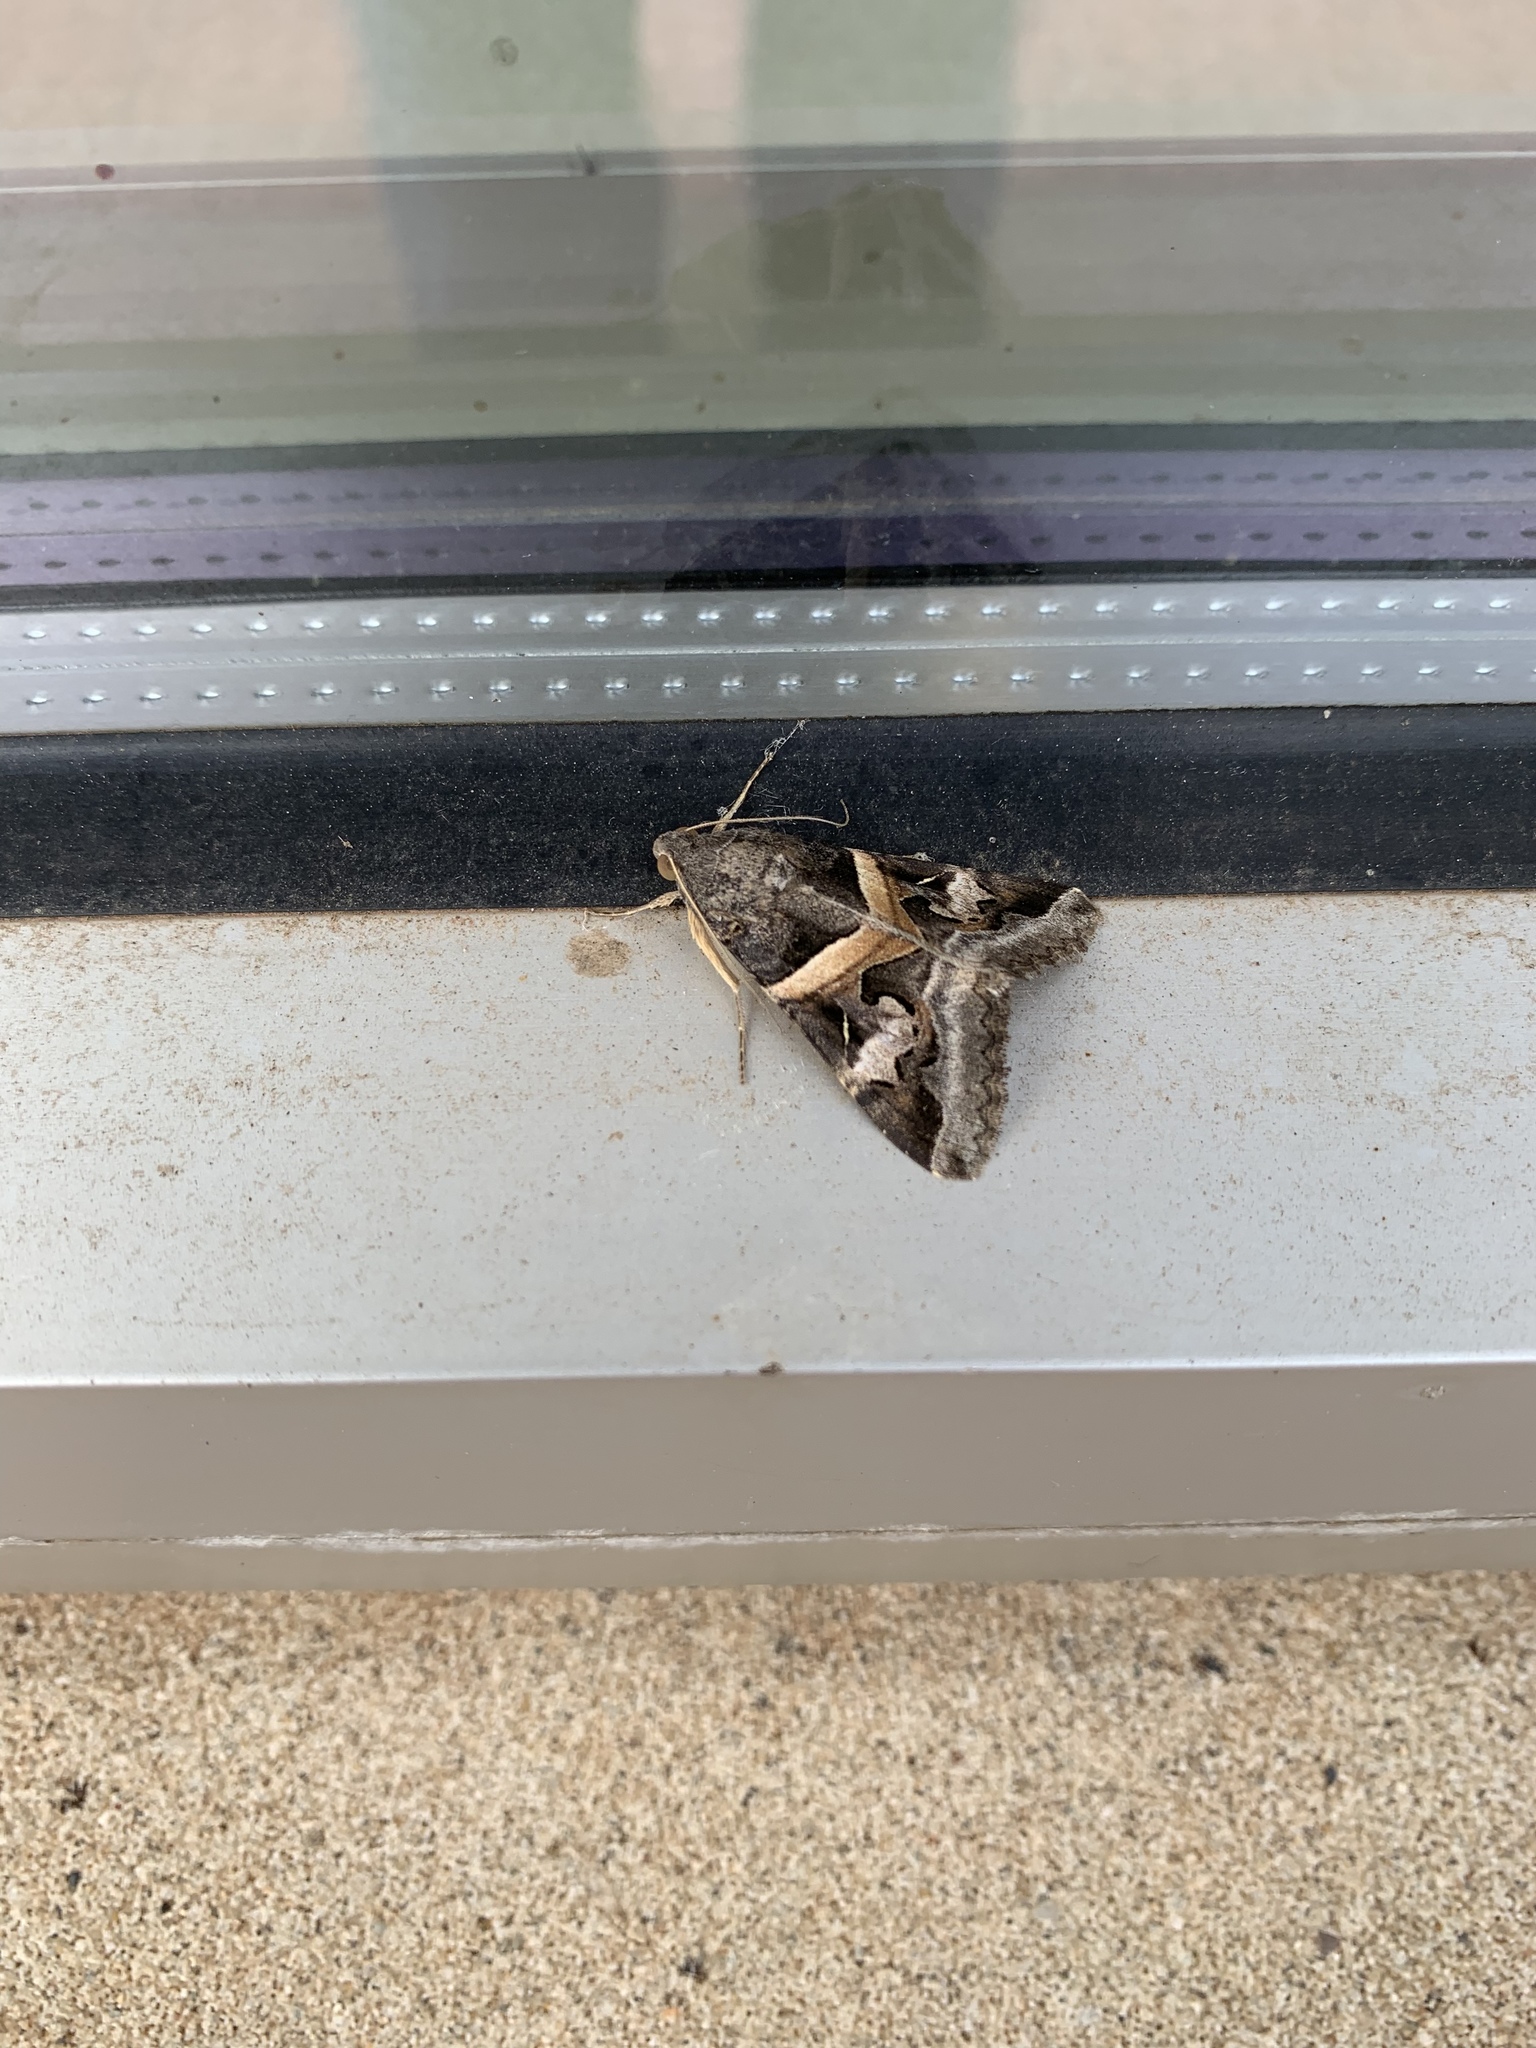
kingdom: Animalia
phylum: Arthropoda
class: Insecta
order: Lepidoptera
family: Erebidae
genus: Melipotis
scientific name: Melipotis indomita
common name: Moth
